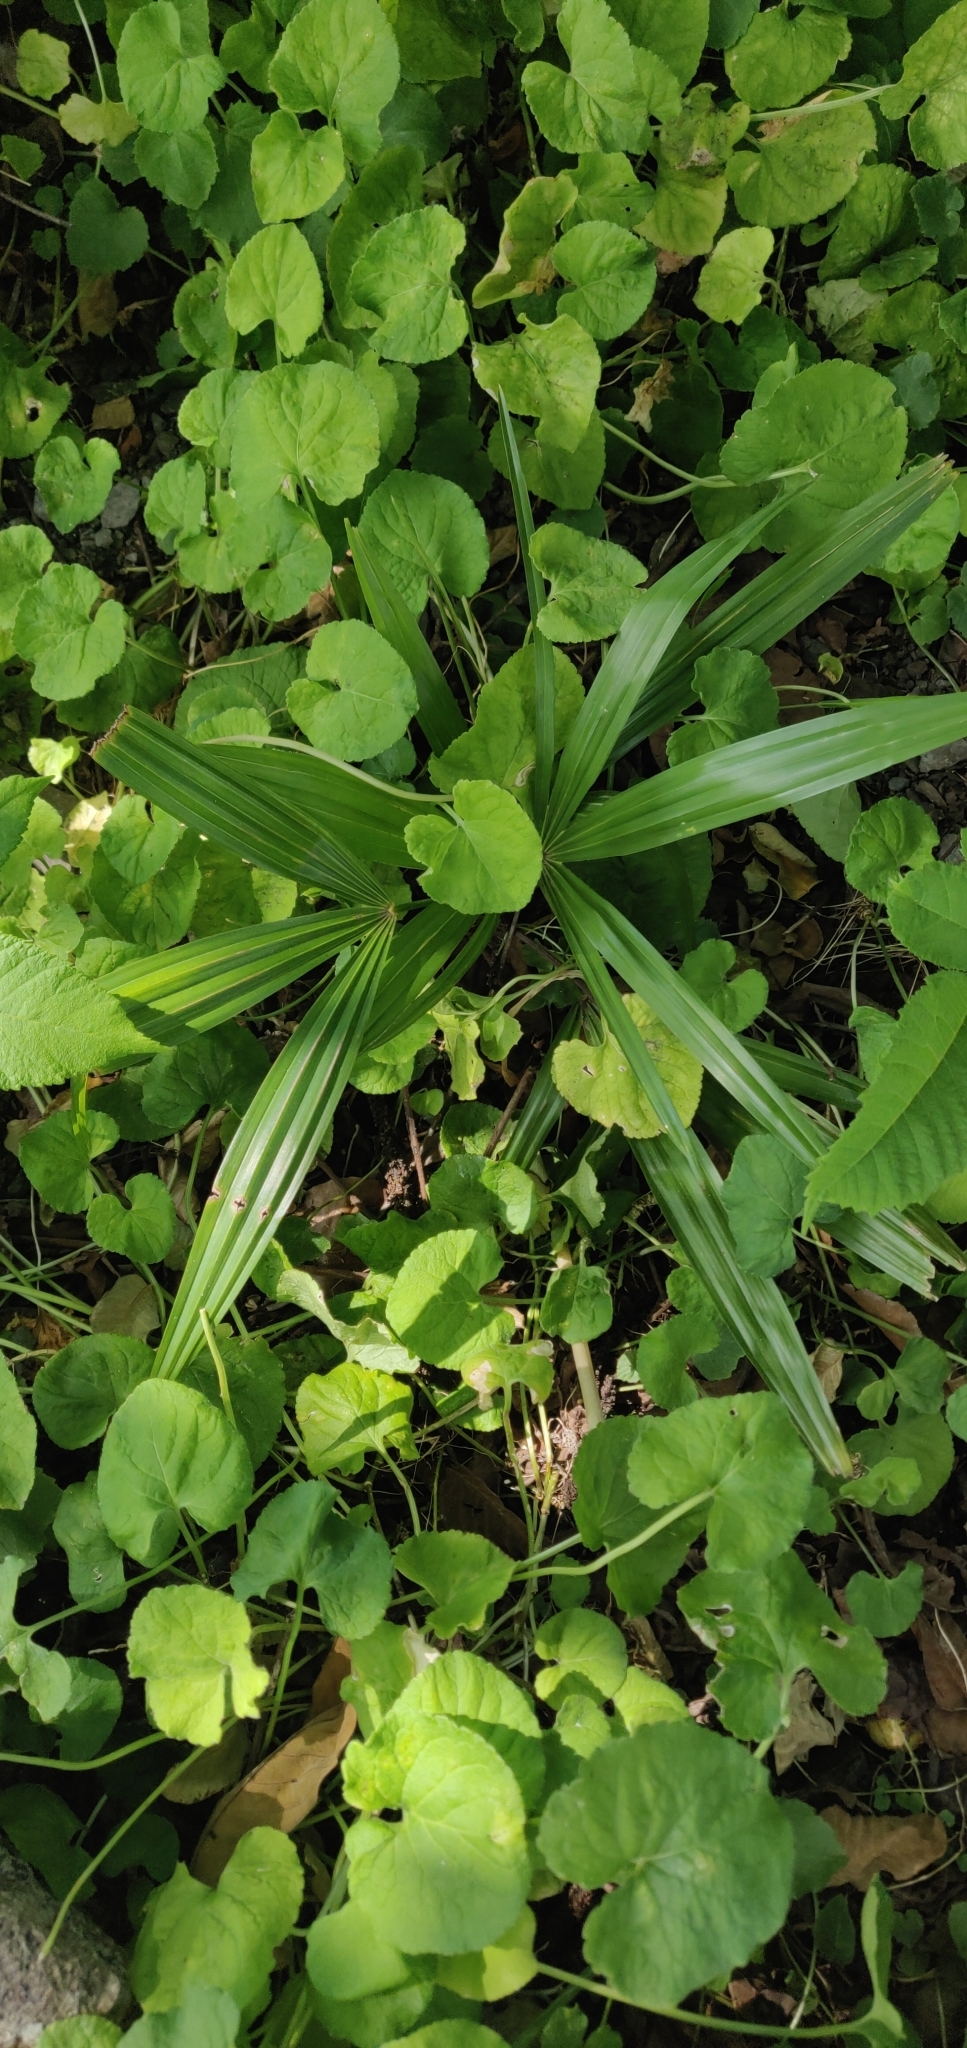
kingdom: Plantae
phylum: Tracheophyta
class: Liliopsida
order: Arecales
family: Arecaceae
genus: Trachycarpus
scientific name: Trachycarpus fortunei
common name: Chusan palm
